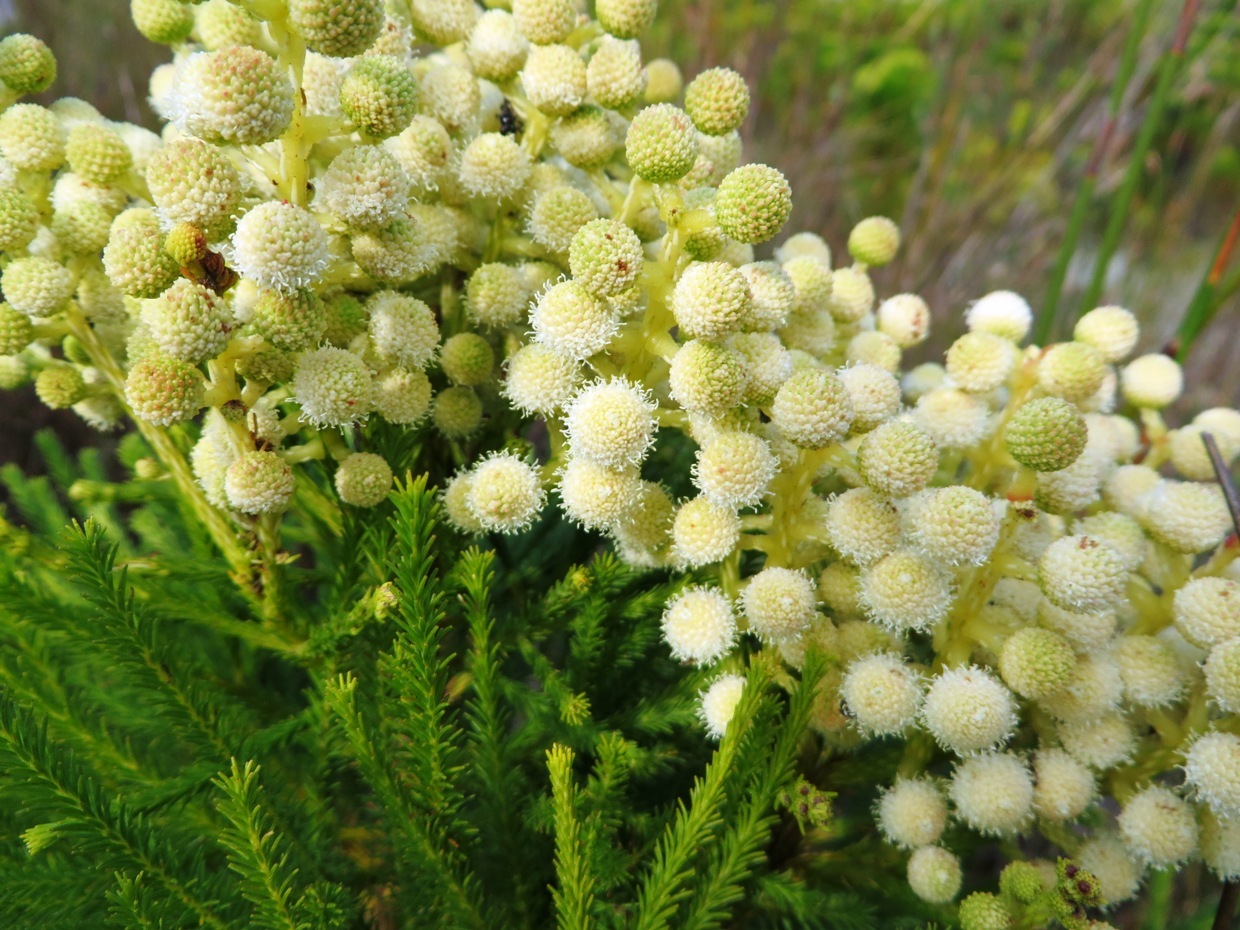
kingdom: Plantae
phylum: Tracheophyta
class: Magnoliopsida
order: Bruniales
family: Bruniaceae
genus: Berzelia
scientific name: Berzelia lanuginosa
